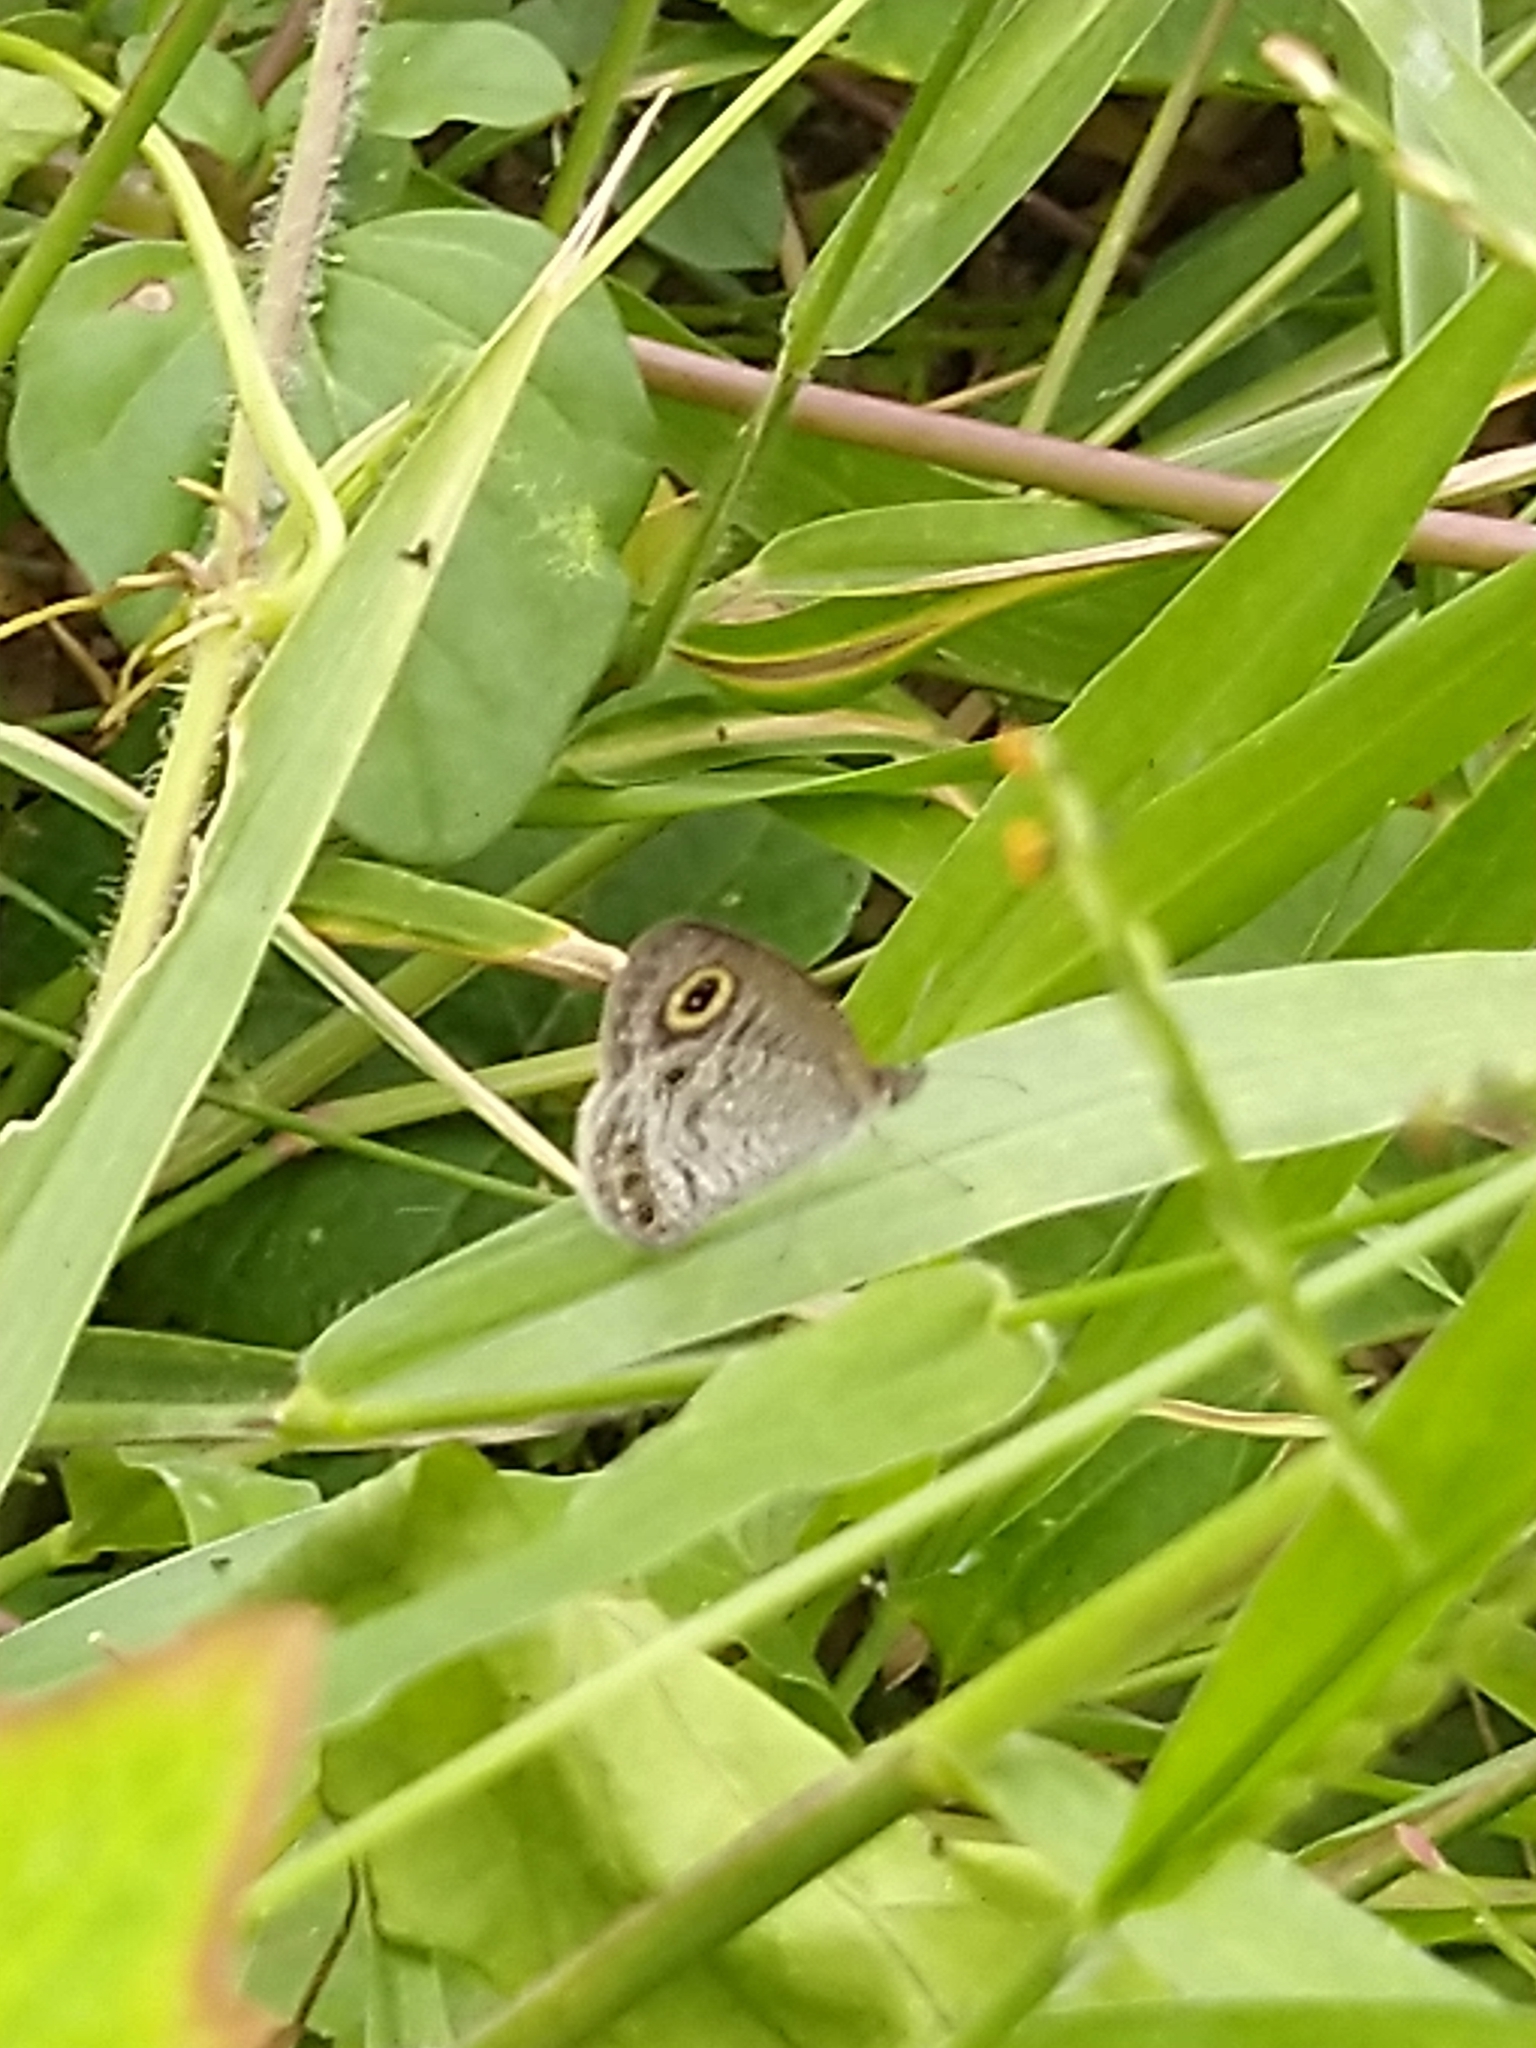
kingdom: Animalia
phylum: Arthropoda
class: Insecta
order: Lepidoptera
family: Nymphalidae
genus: Ypthima
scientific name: Ypthima huebneri
